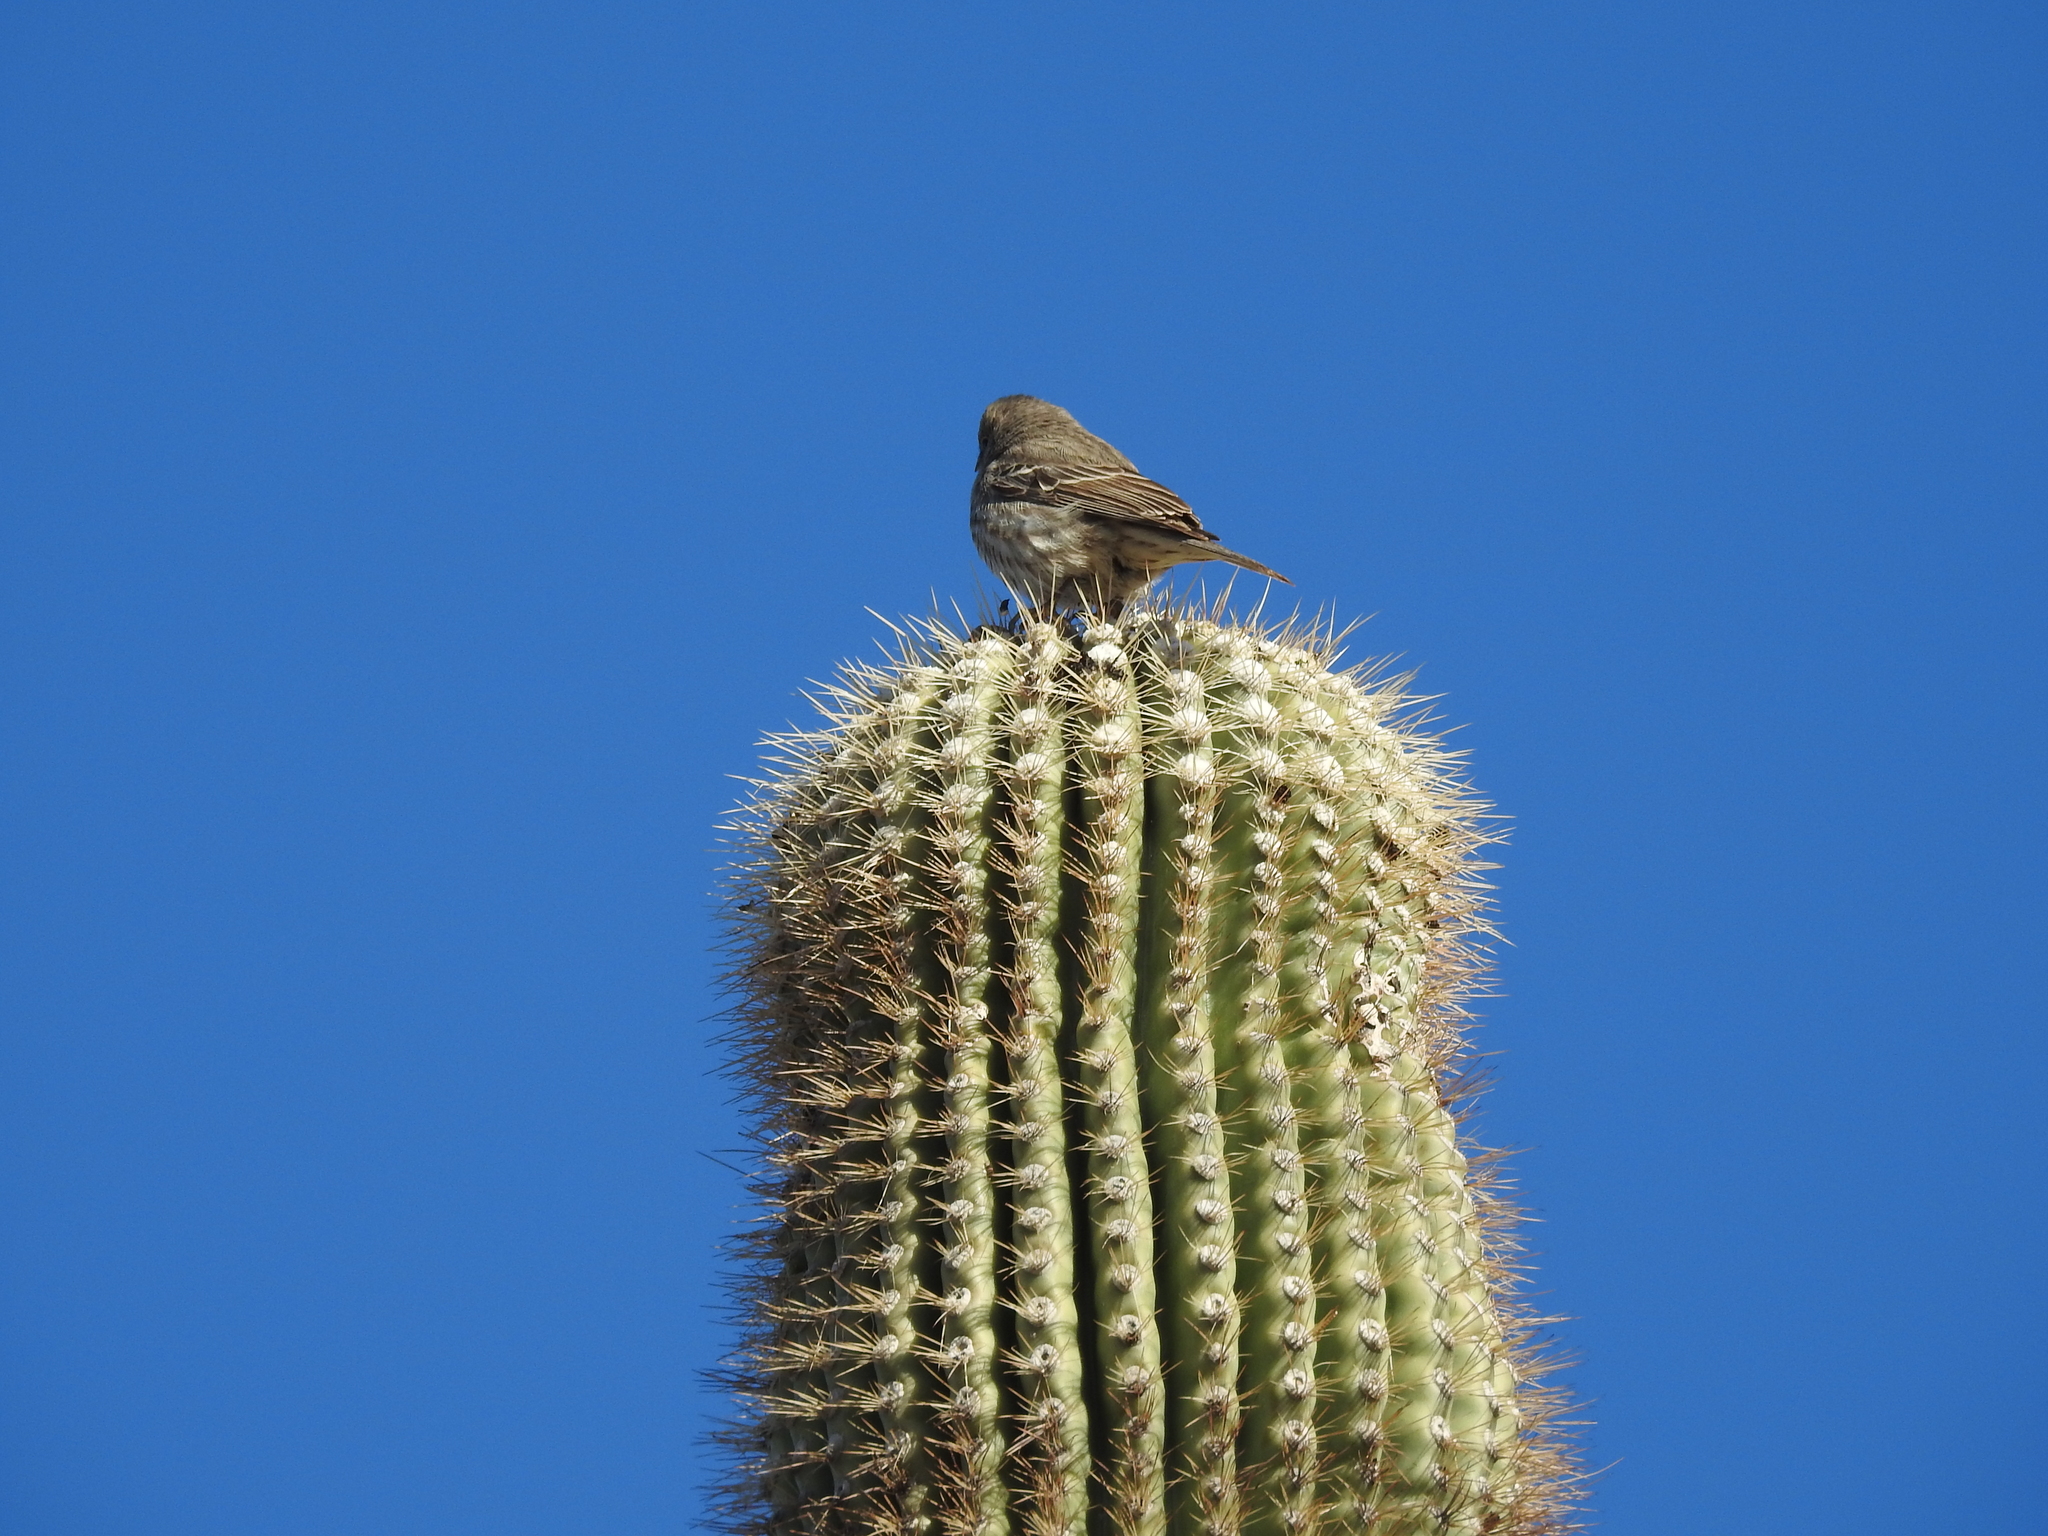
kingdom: Animalia
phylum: Chordata
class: Aves
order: Passeriformes
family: Fringillidae
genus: Haemorhous
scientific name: Haemorhous mexicanus
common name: House finch
